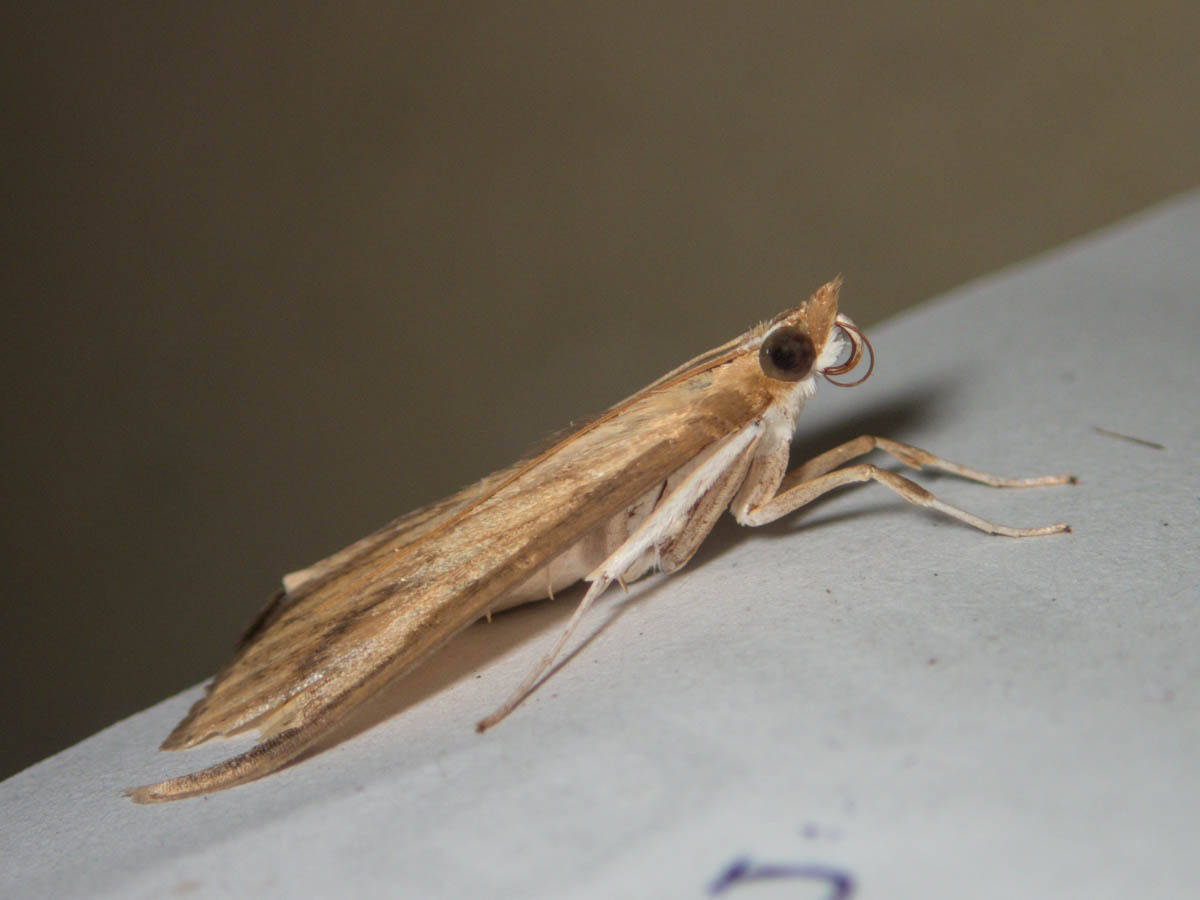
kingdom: Animalia
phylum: Arthropoda
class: Insecta
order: Lepidoptera
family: Crambidae
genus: Circobotys
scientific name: Circobotys occultilinea
